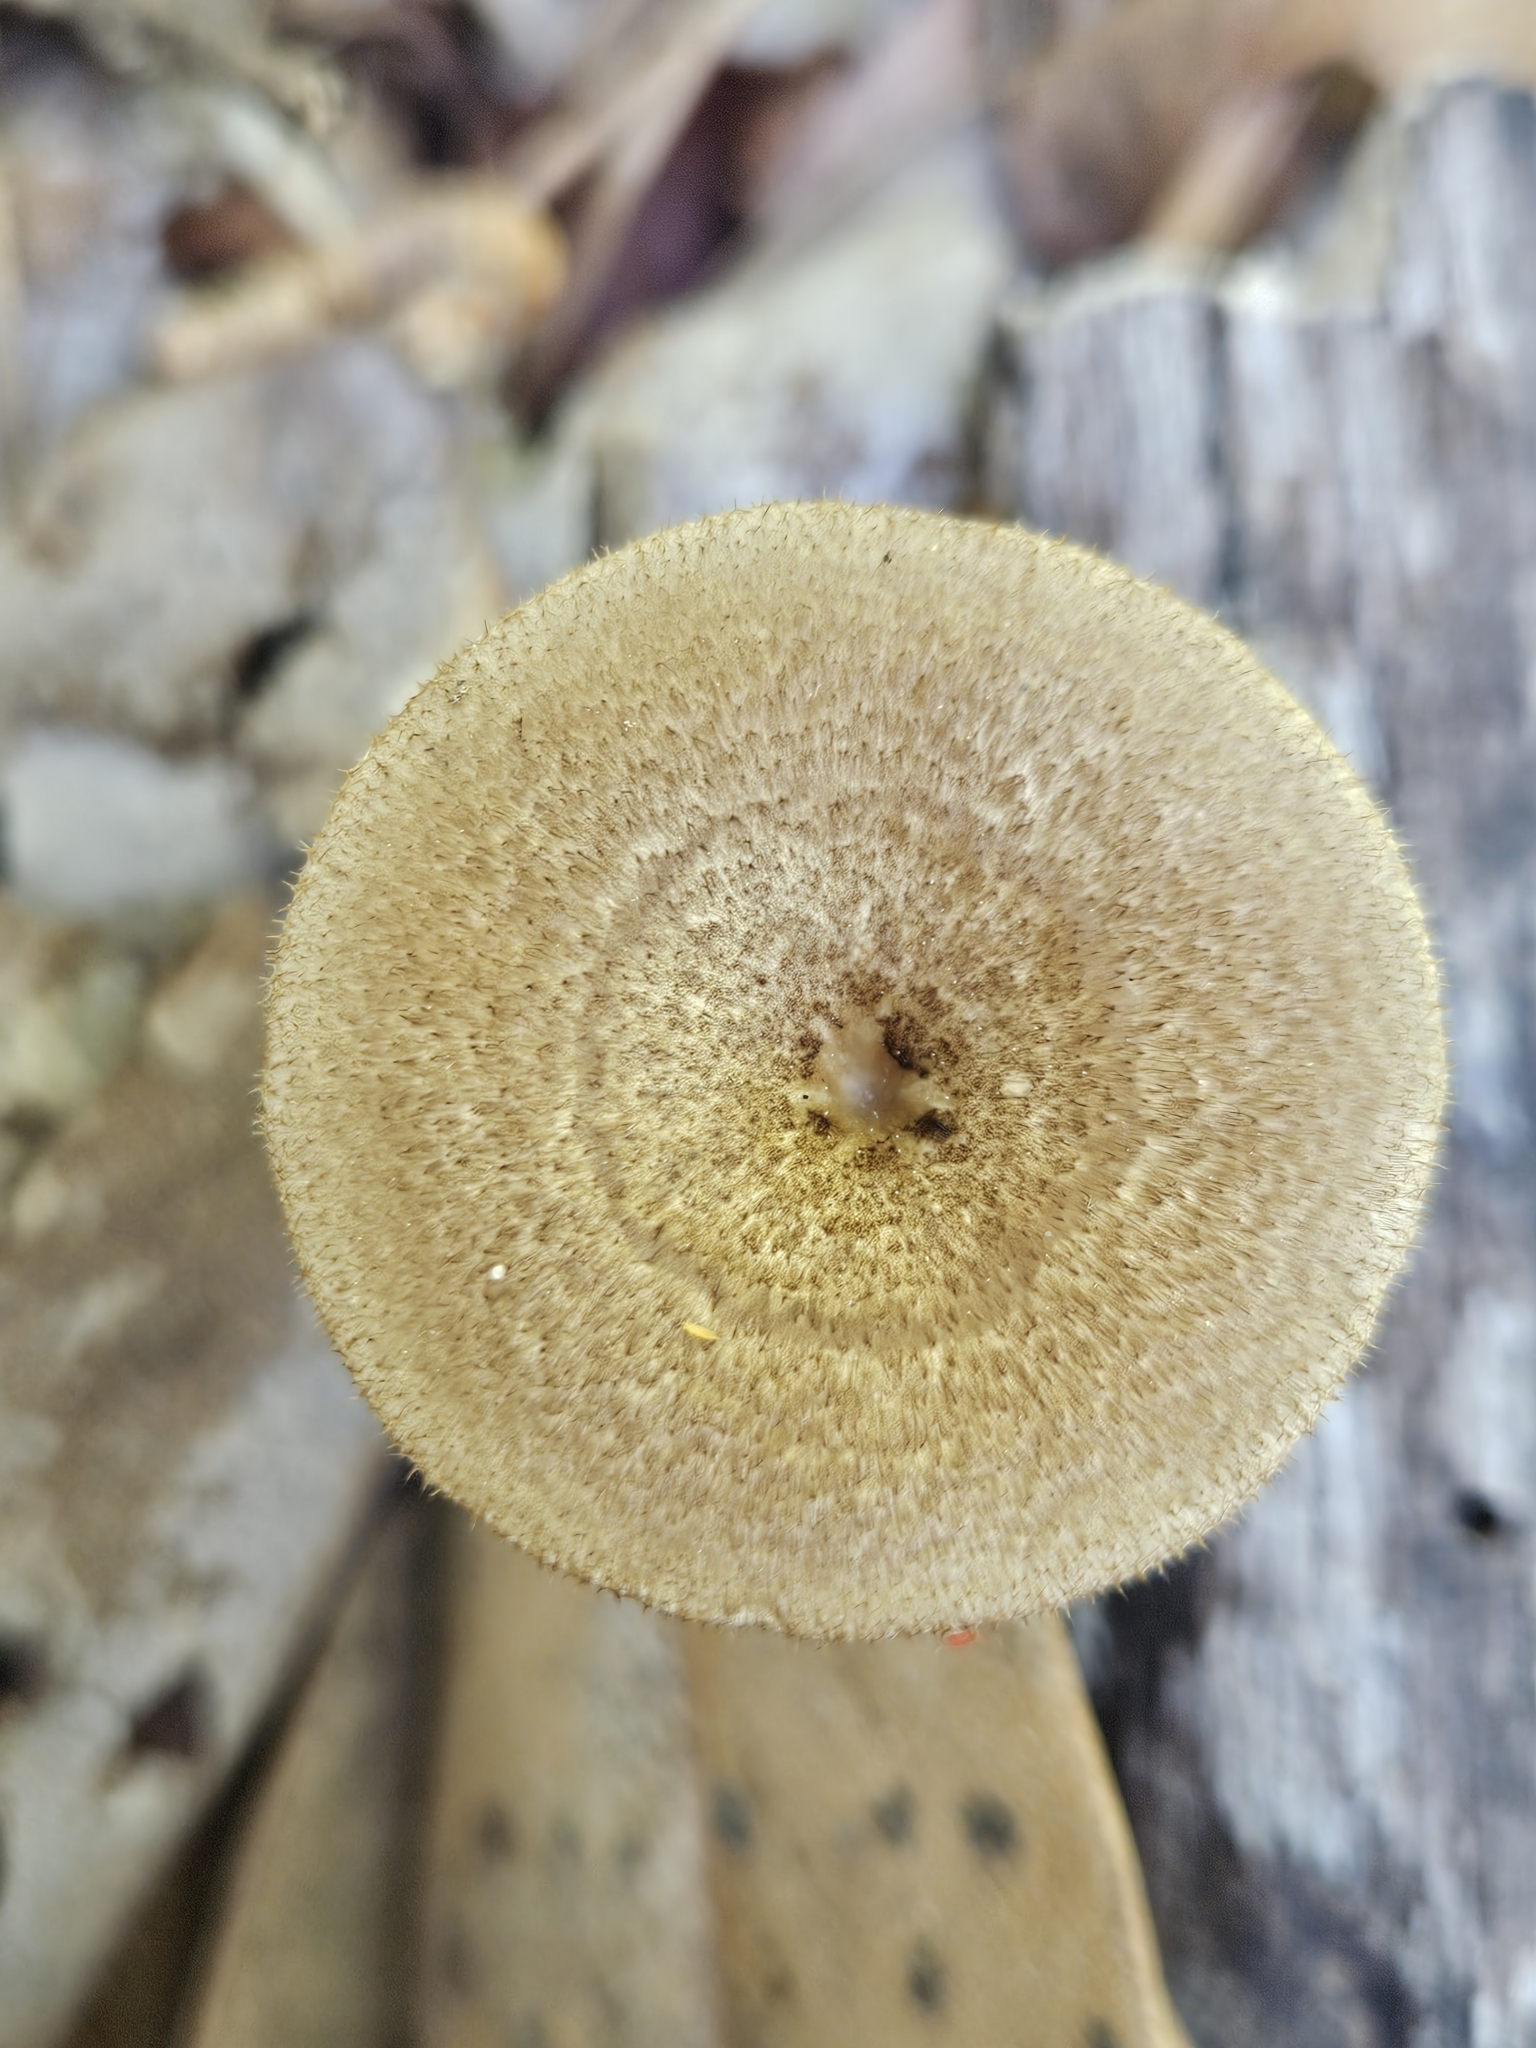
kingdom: Fungi
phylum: Basidiomycota
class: Agaricomycetes
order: Polyporales
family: Polyporaceae
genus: Lentinus
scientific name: Lentinus arcularius
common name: Spring polypore
